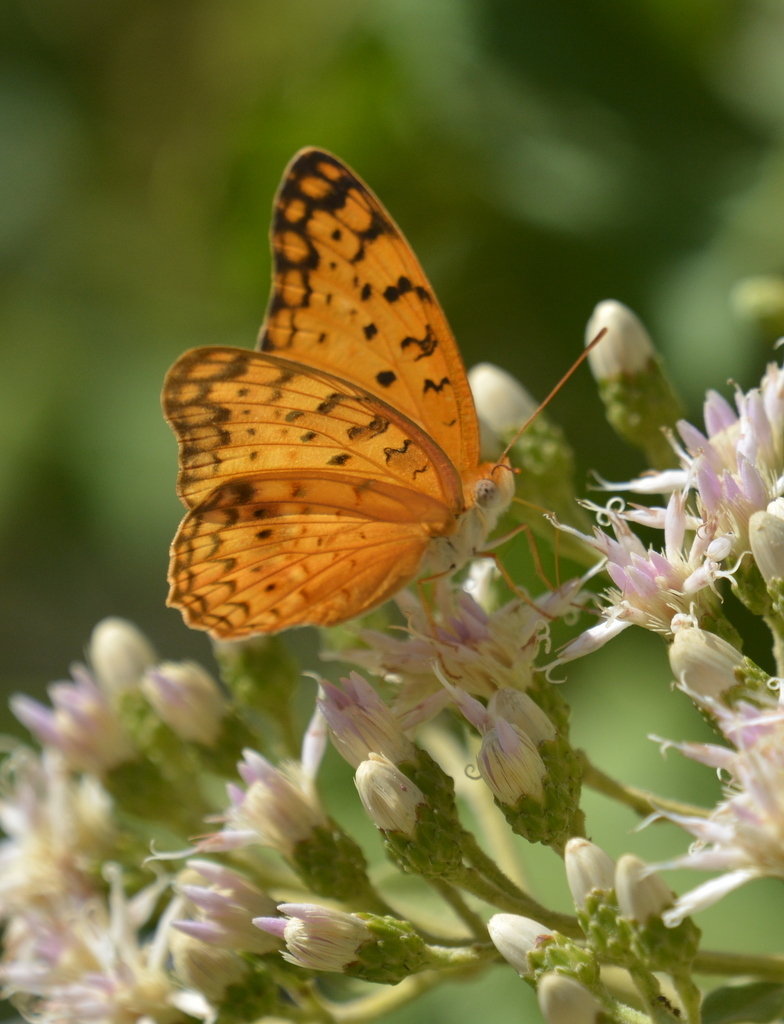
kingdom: Animalia
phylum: Arthropoda
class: Insecta
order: Lepidoptera
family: Nymphalidae
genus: Phalanta
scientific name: Phalanta phalantha
